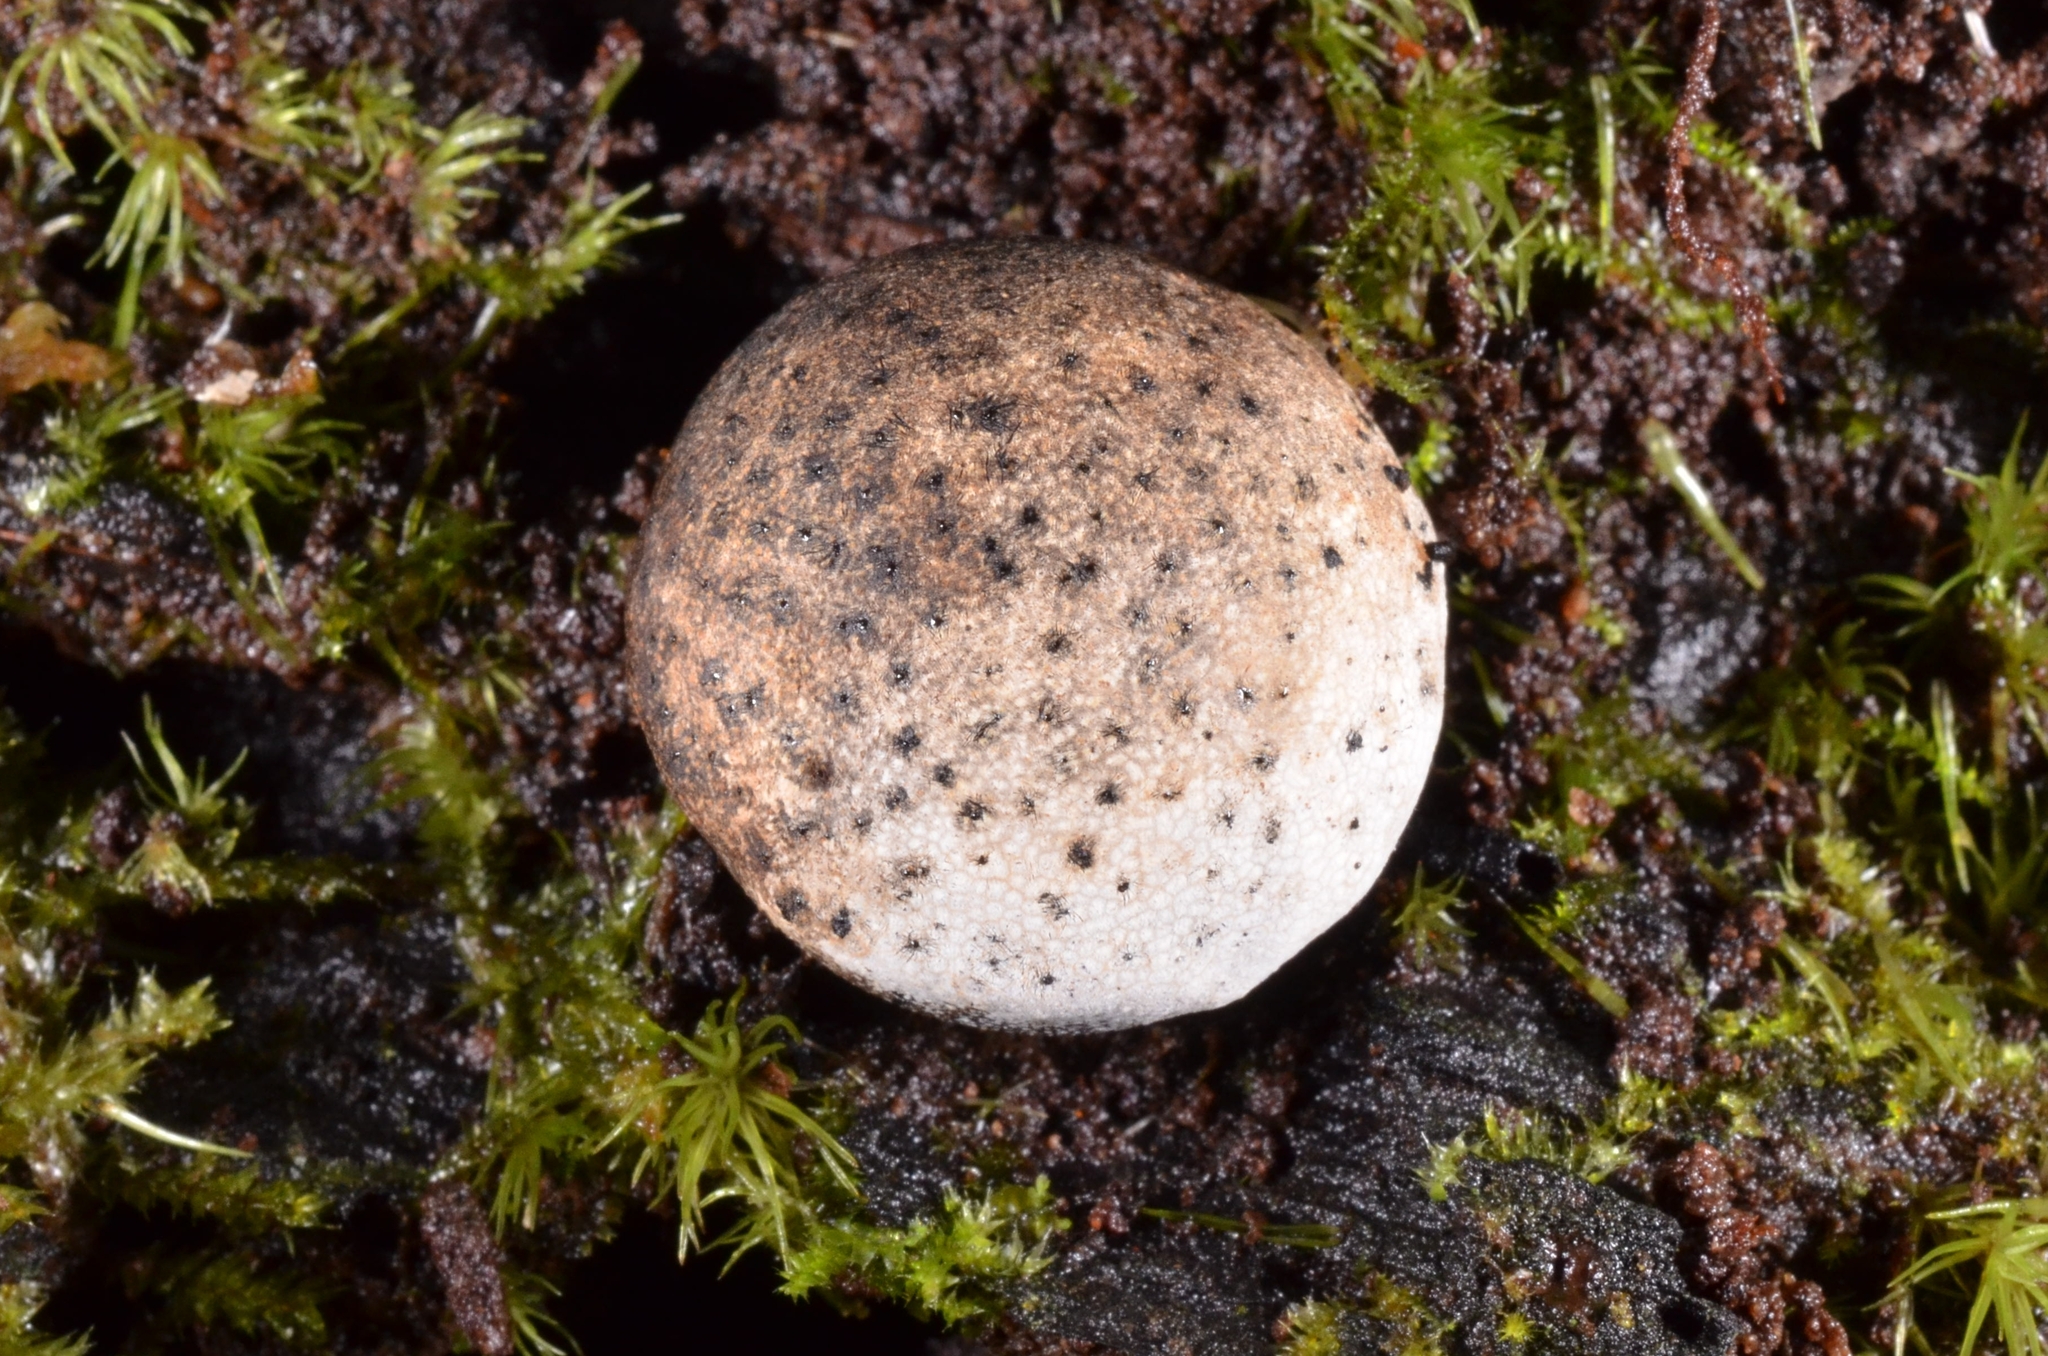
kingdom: Fungi
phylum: Ascomycota
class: Sordariomycetes
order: Xylariales
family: Xylariaceae
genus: Xylaria
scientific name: Xylaria cranioides
